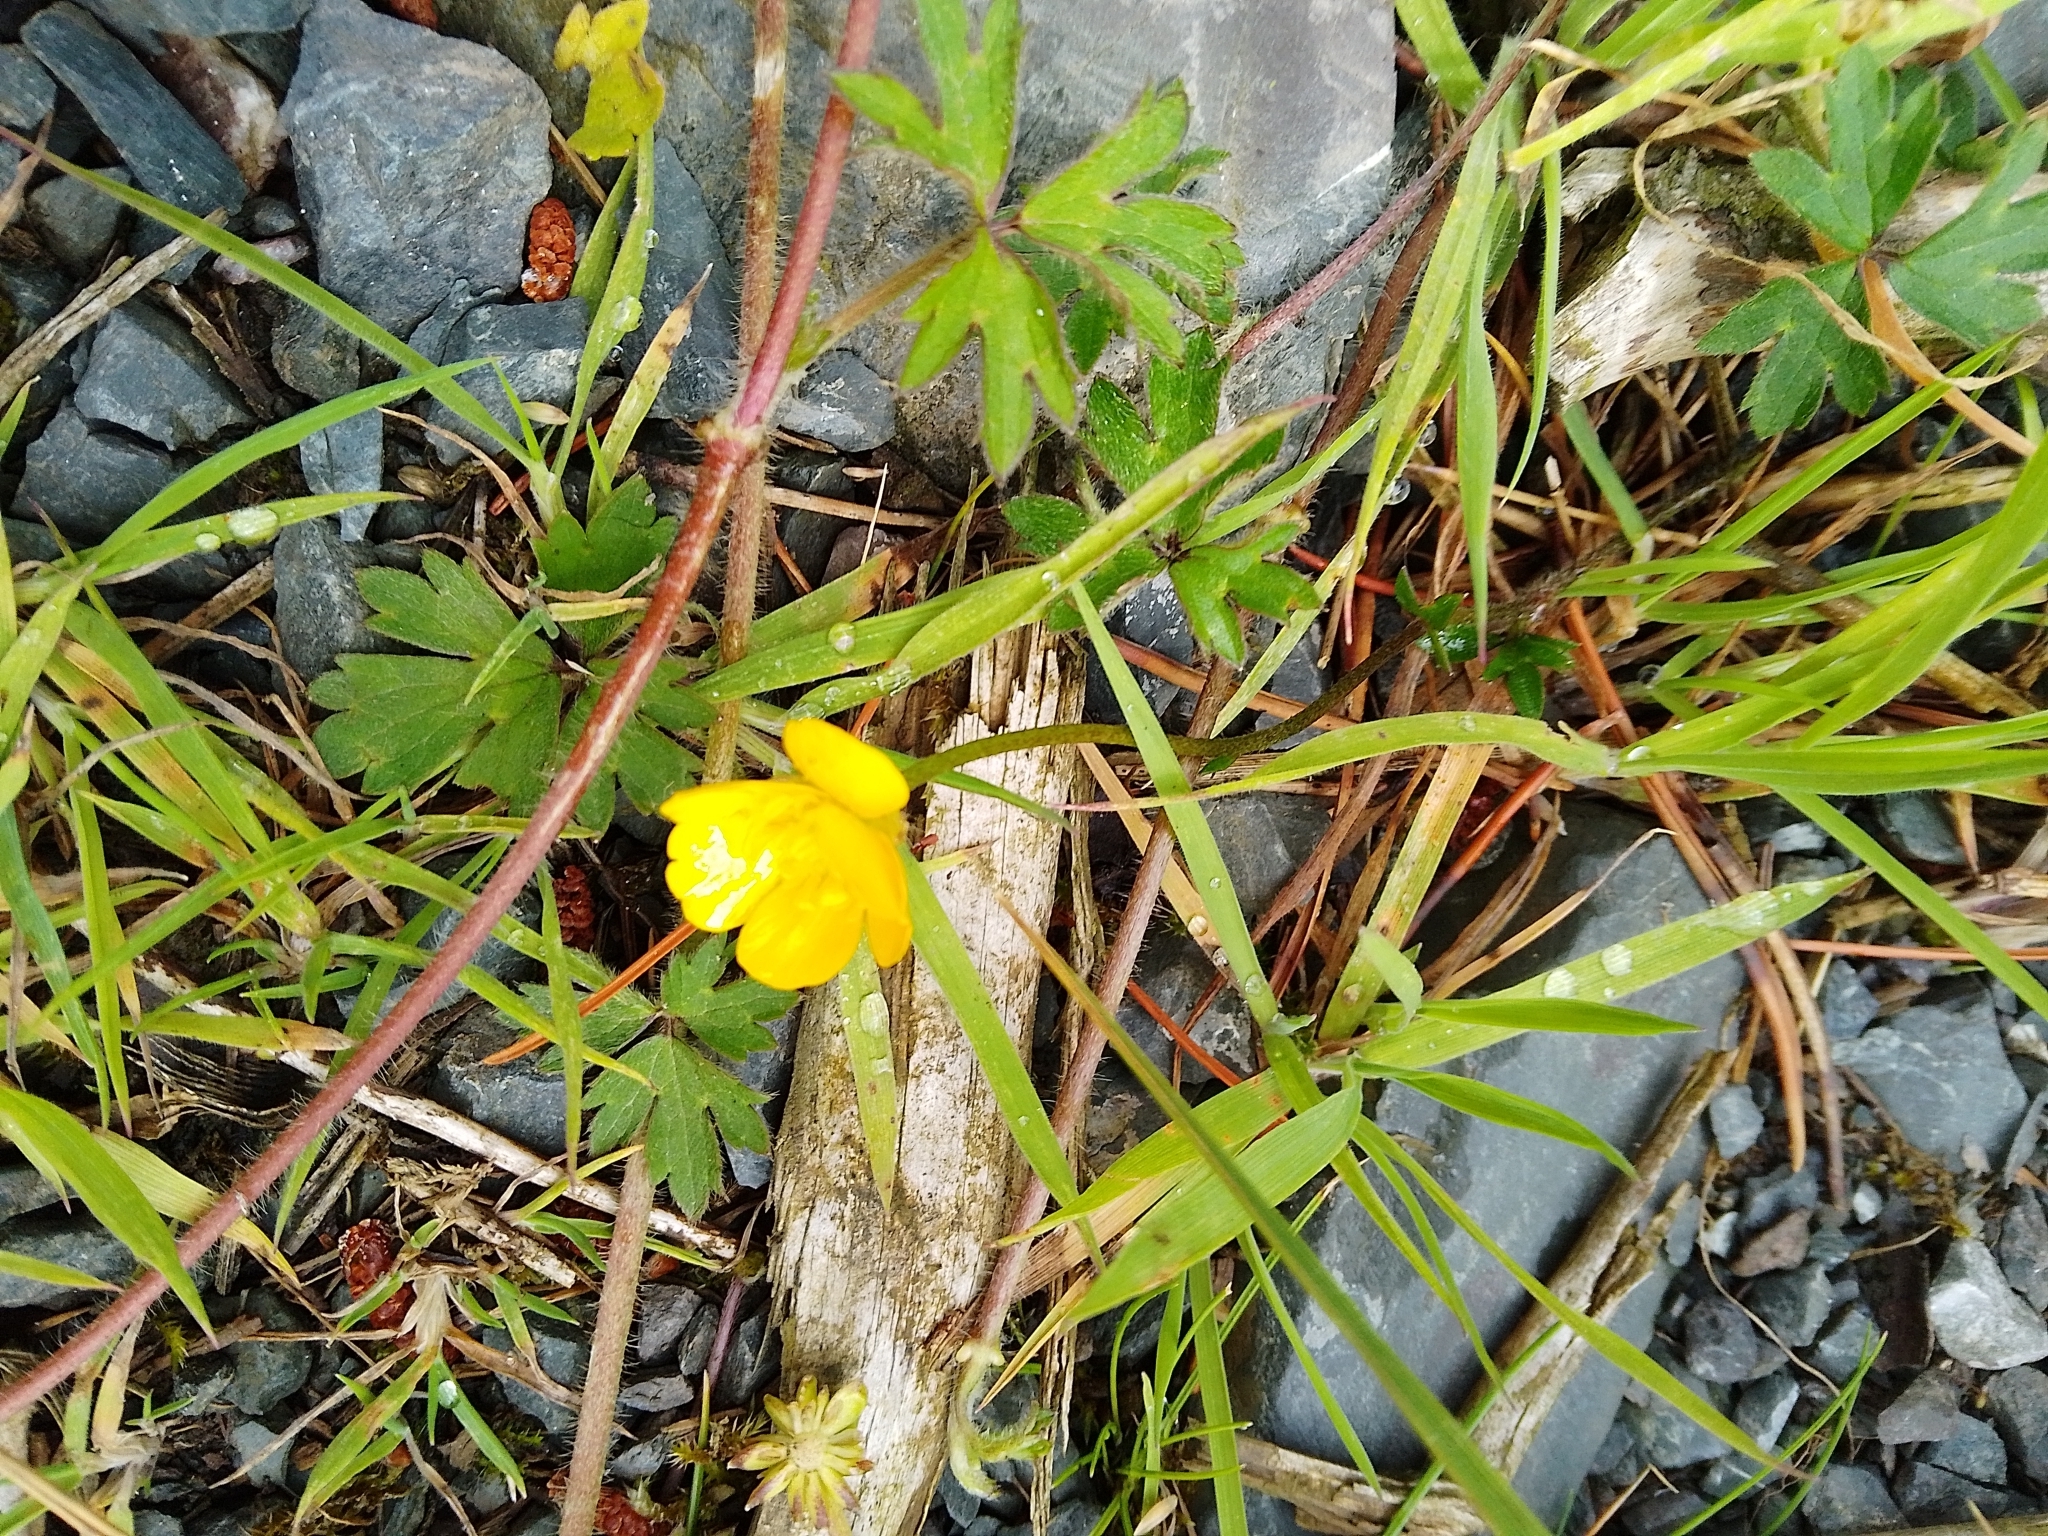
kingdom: Plantae
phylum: Tracheophyta
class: Magnoliopsida
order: Ranunculales
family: Ranunculaceae
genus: Ranunculus
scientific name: Ranunculus repens
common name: Creeping buttercup
